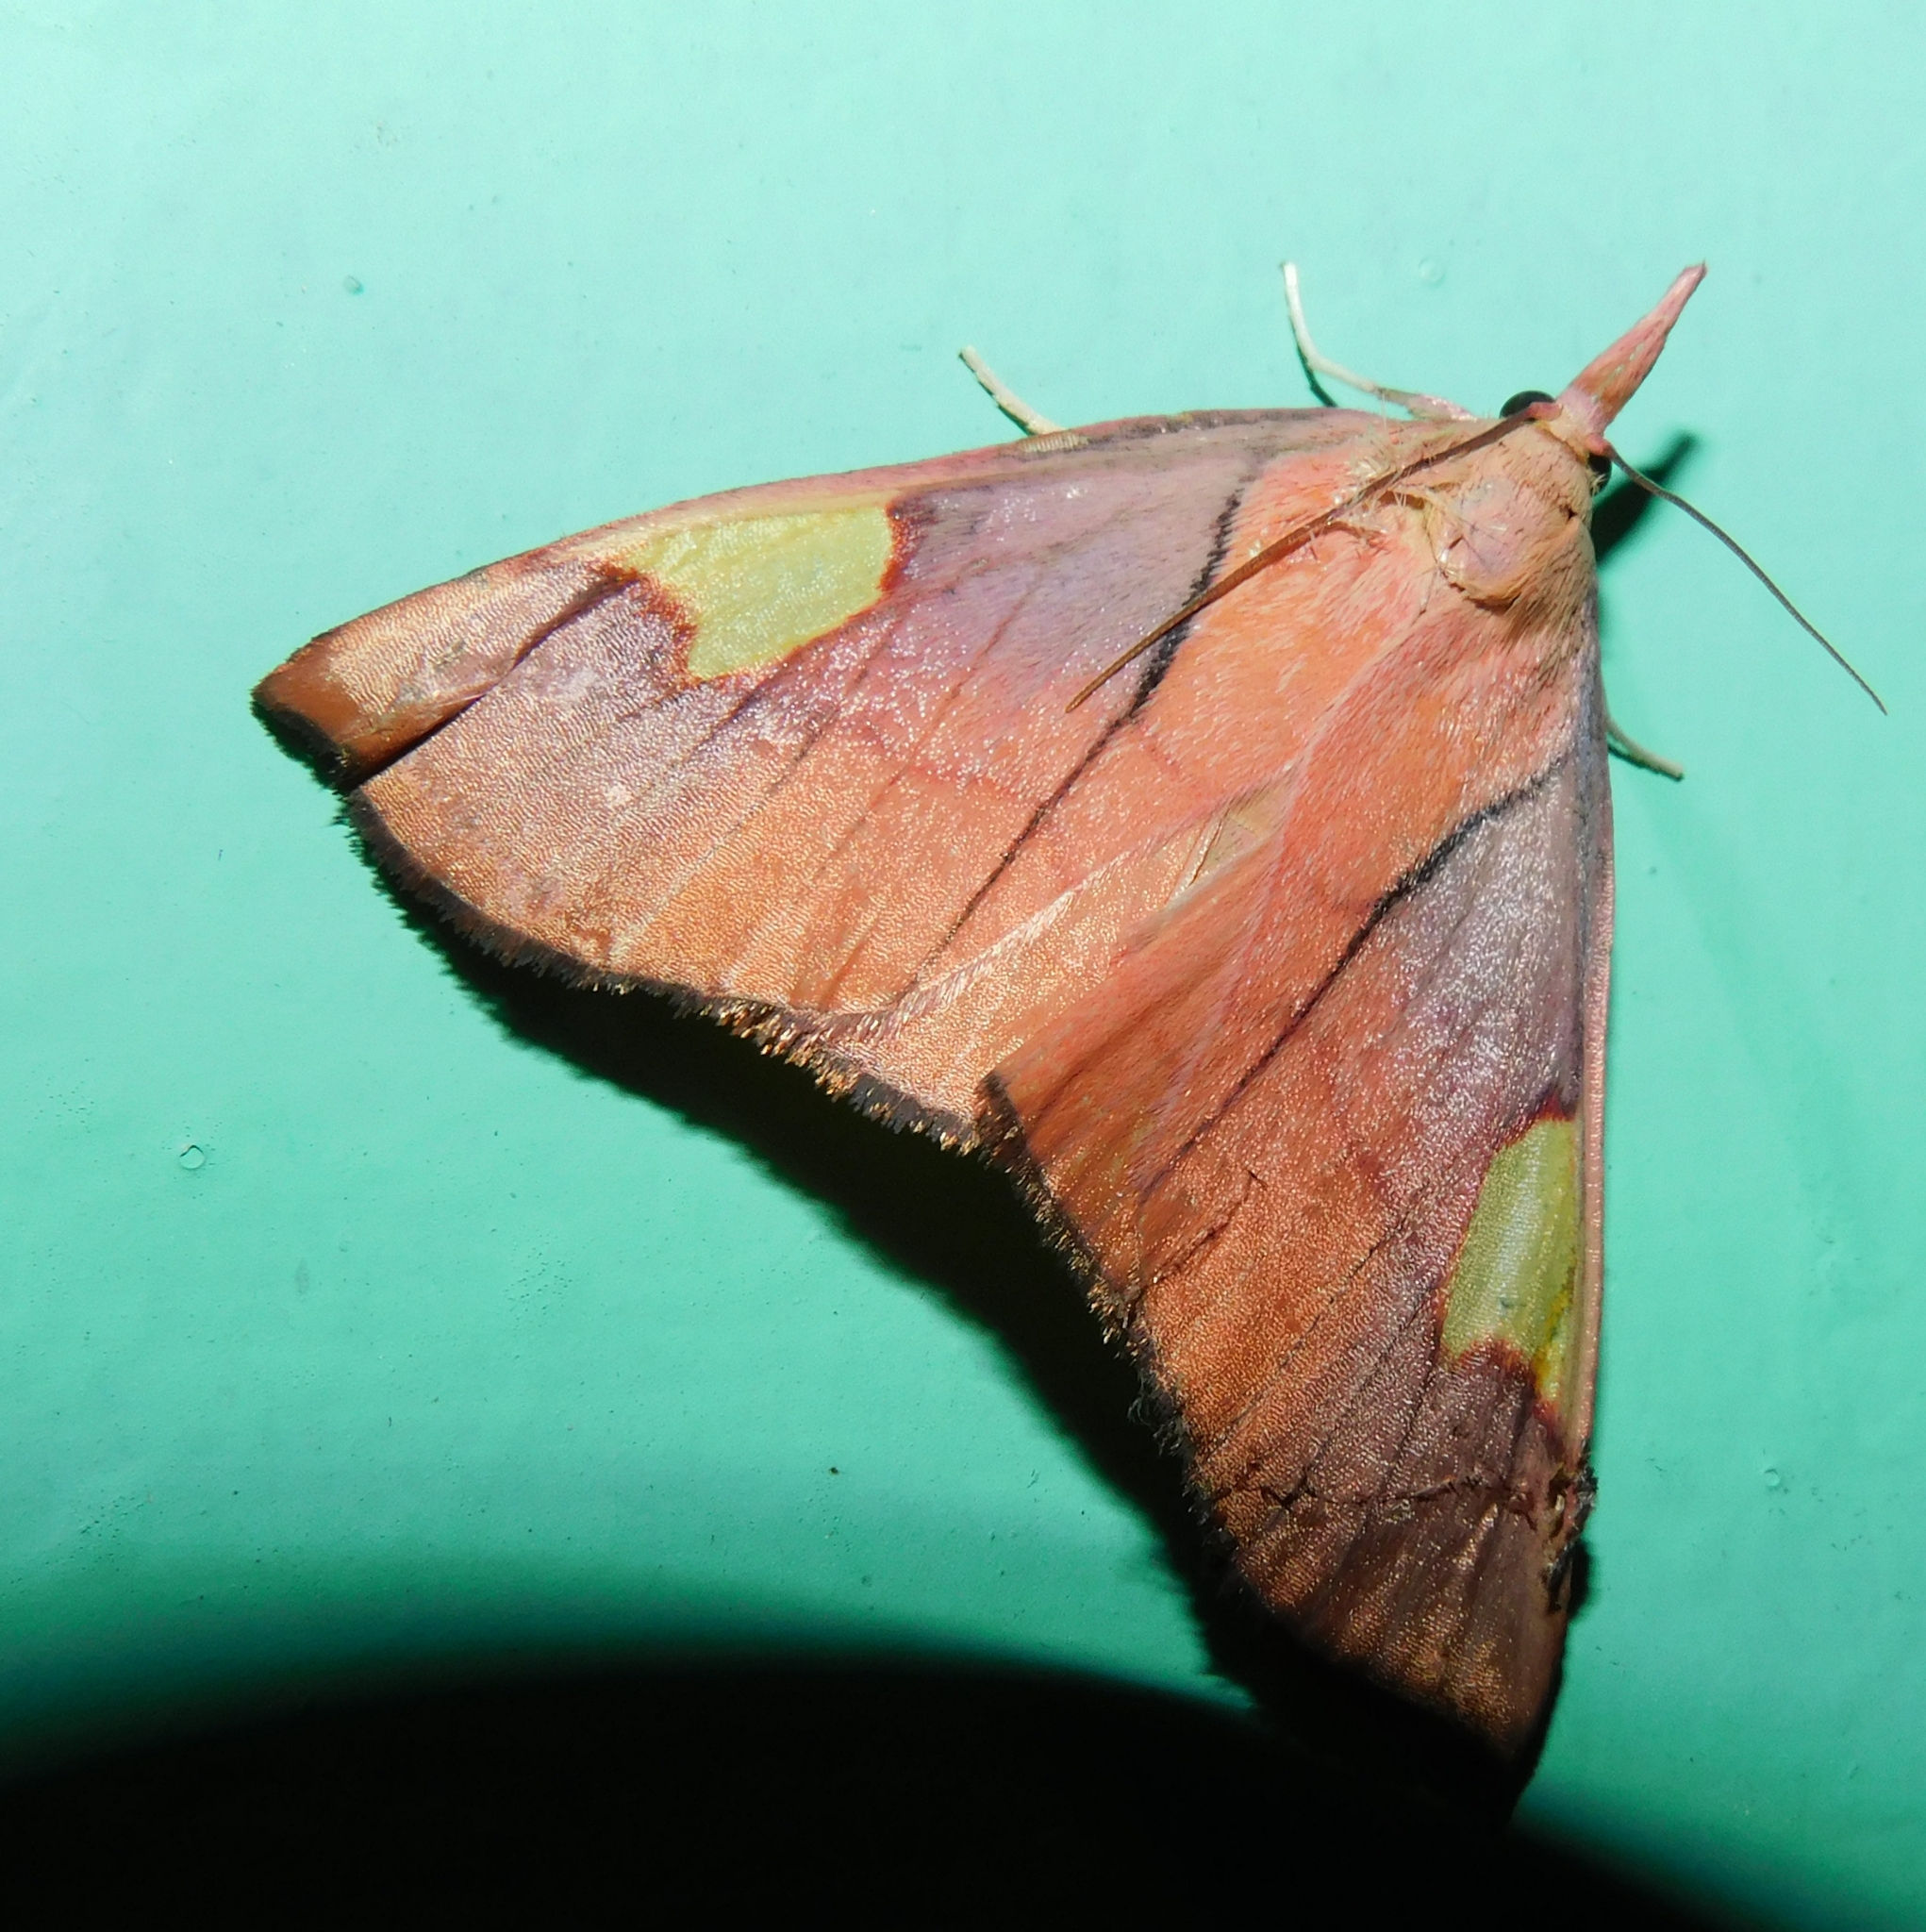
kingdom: Animalia
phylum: Arthropoda
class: Insecta
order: Lepidoptera
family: Pyralidae
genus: Orybina
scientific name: Orybina flaviplaga
